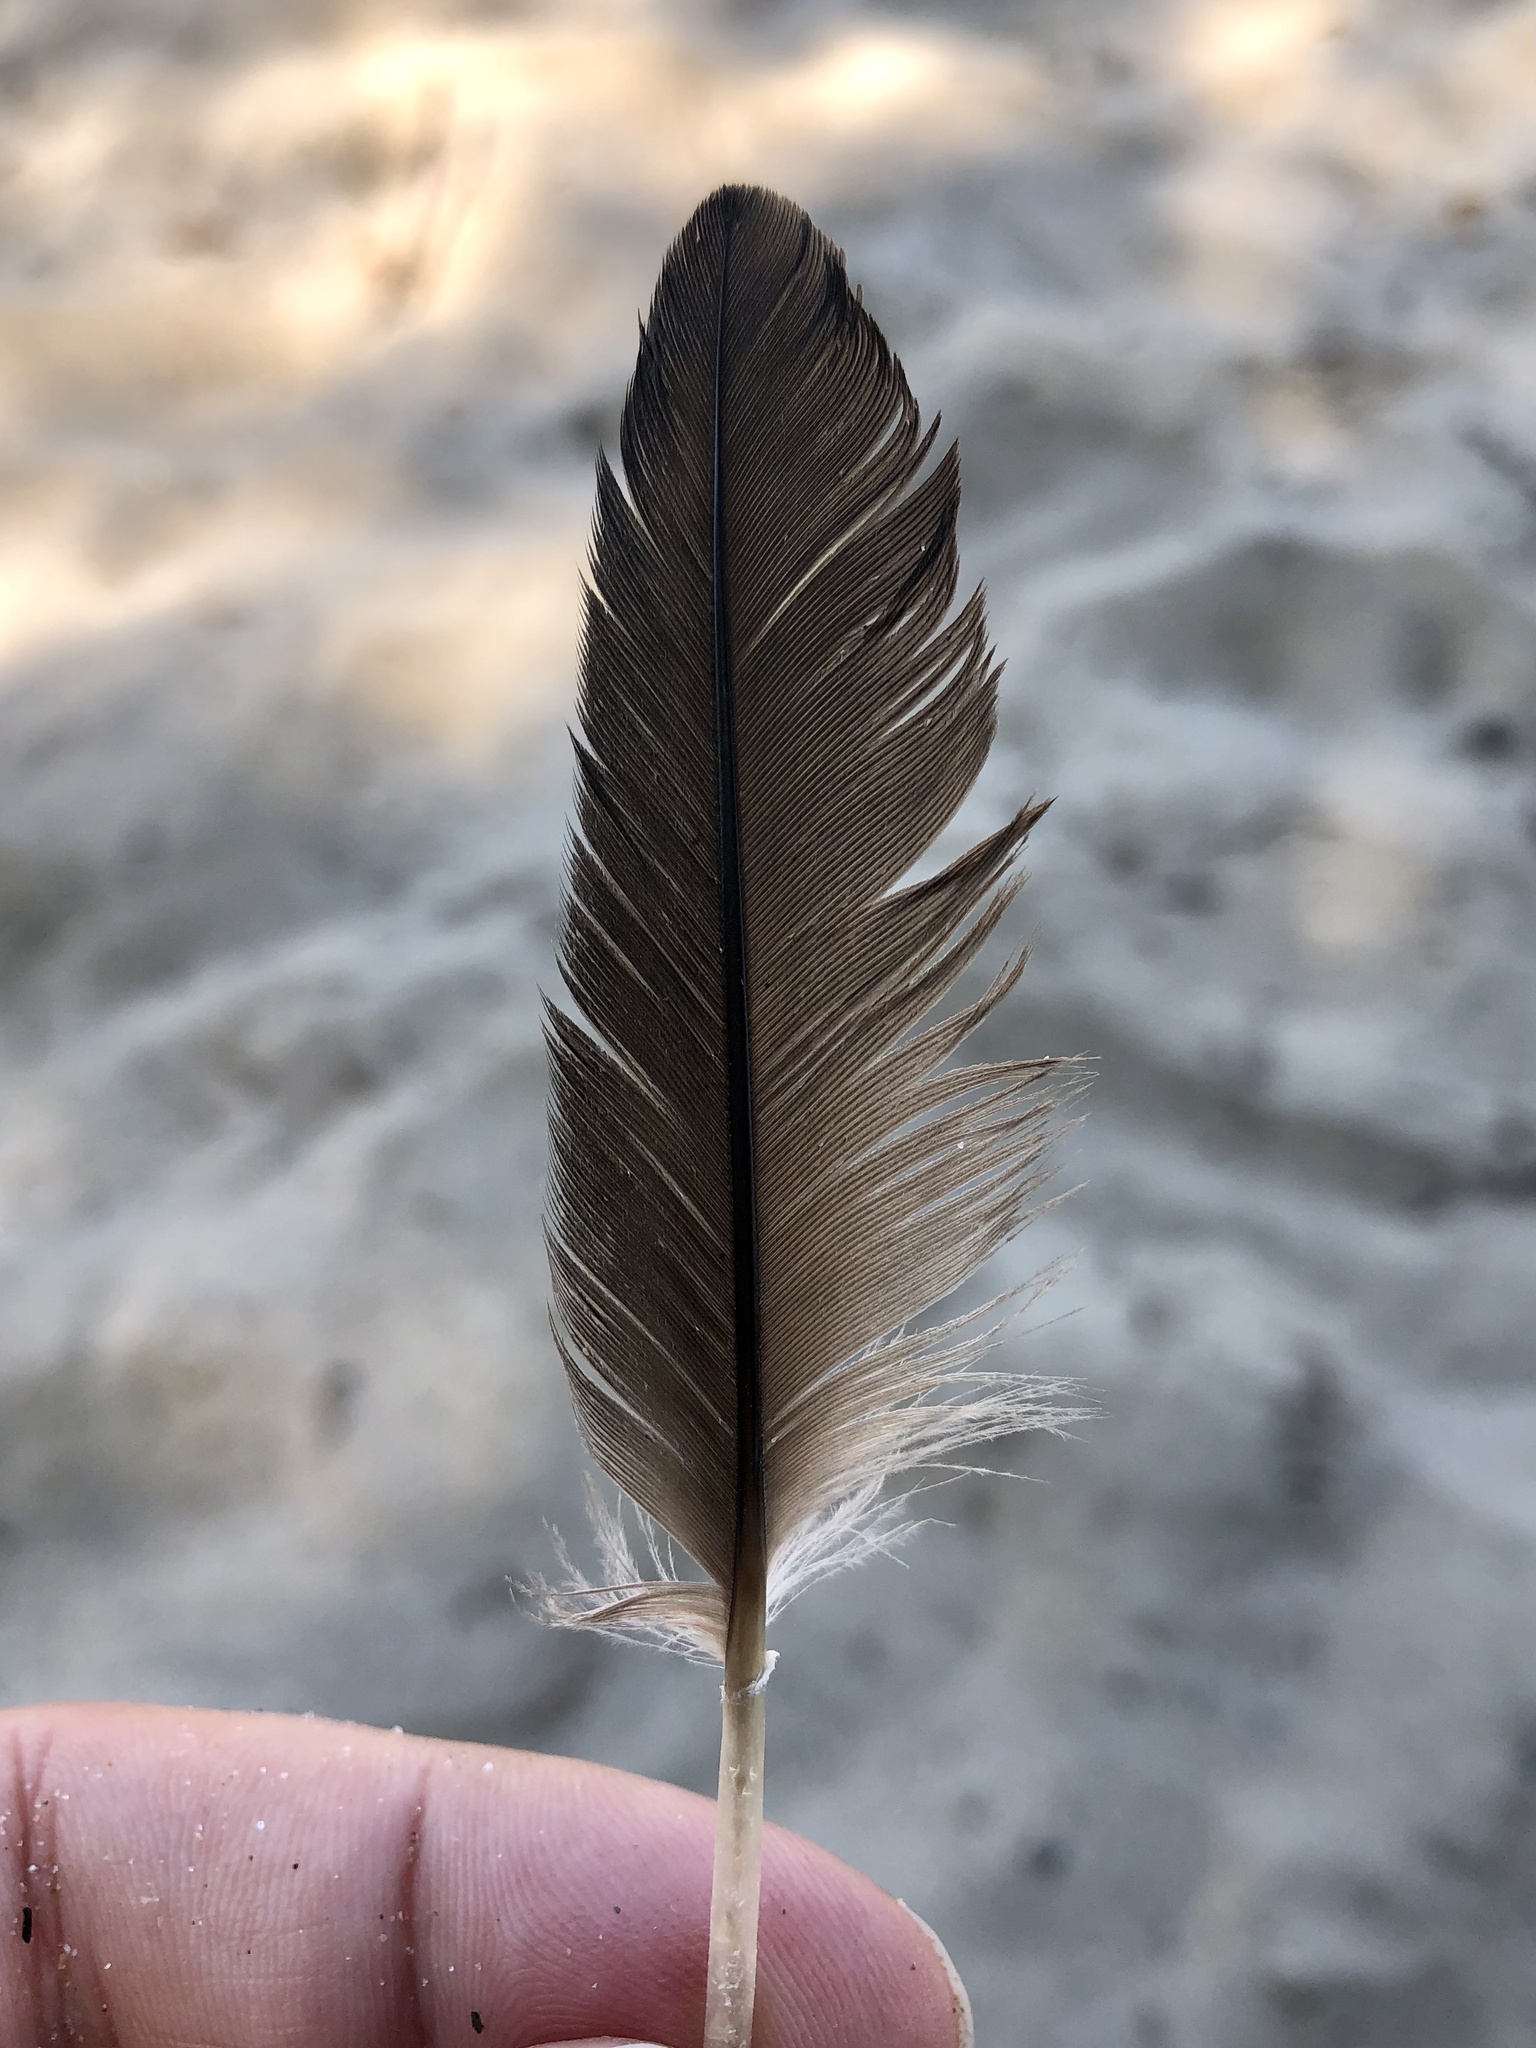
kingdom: Animalia
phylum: Chordata
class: Aves
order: Suliformes
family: Phalacrocoracidae
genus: Phalacrocorax
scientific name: Phalacrocorax auritus
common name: Double-crested cormorant
